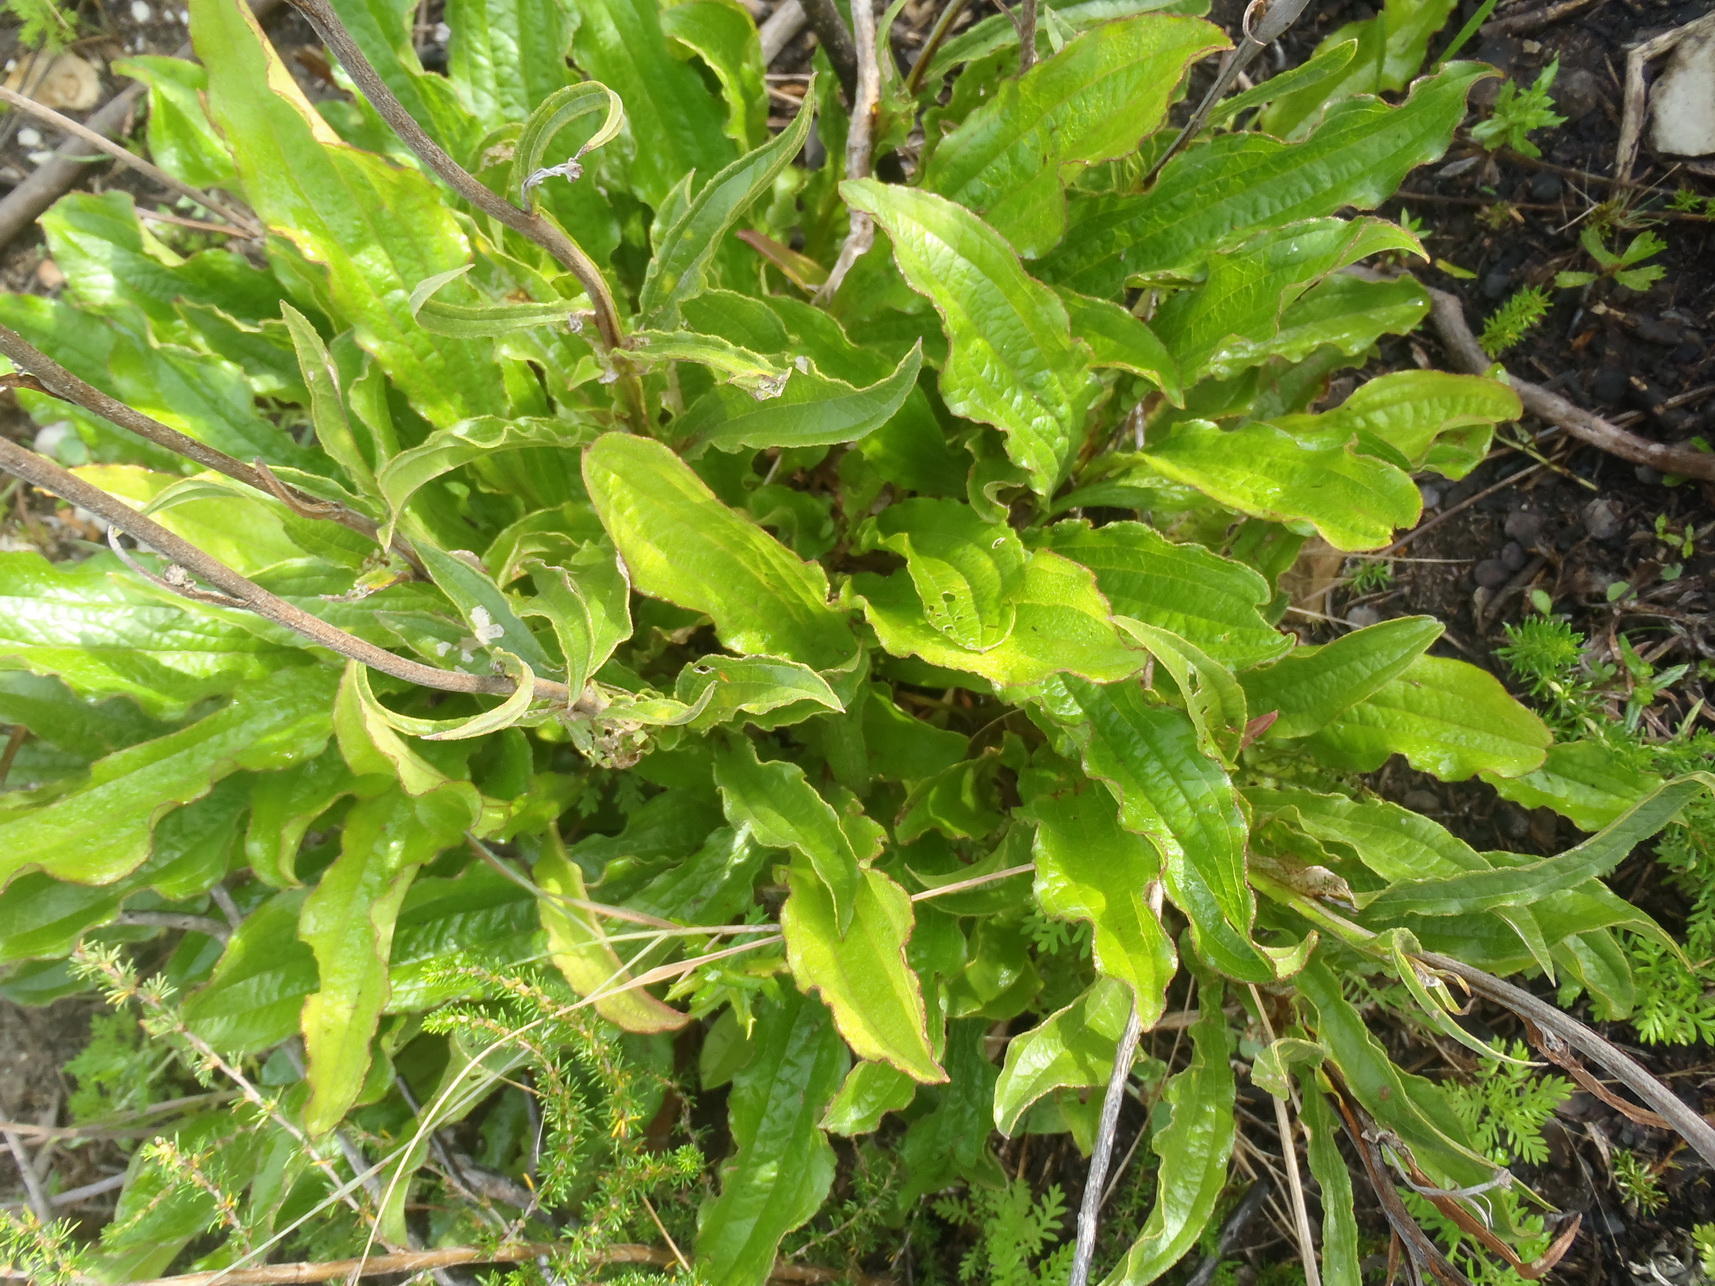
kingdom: Plantae
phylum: Tracheophyta
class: Magnoliopsida
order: Asterales
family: Asteraceae
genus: Helichrysum
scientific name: Helichrysum nudifolium
